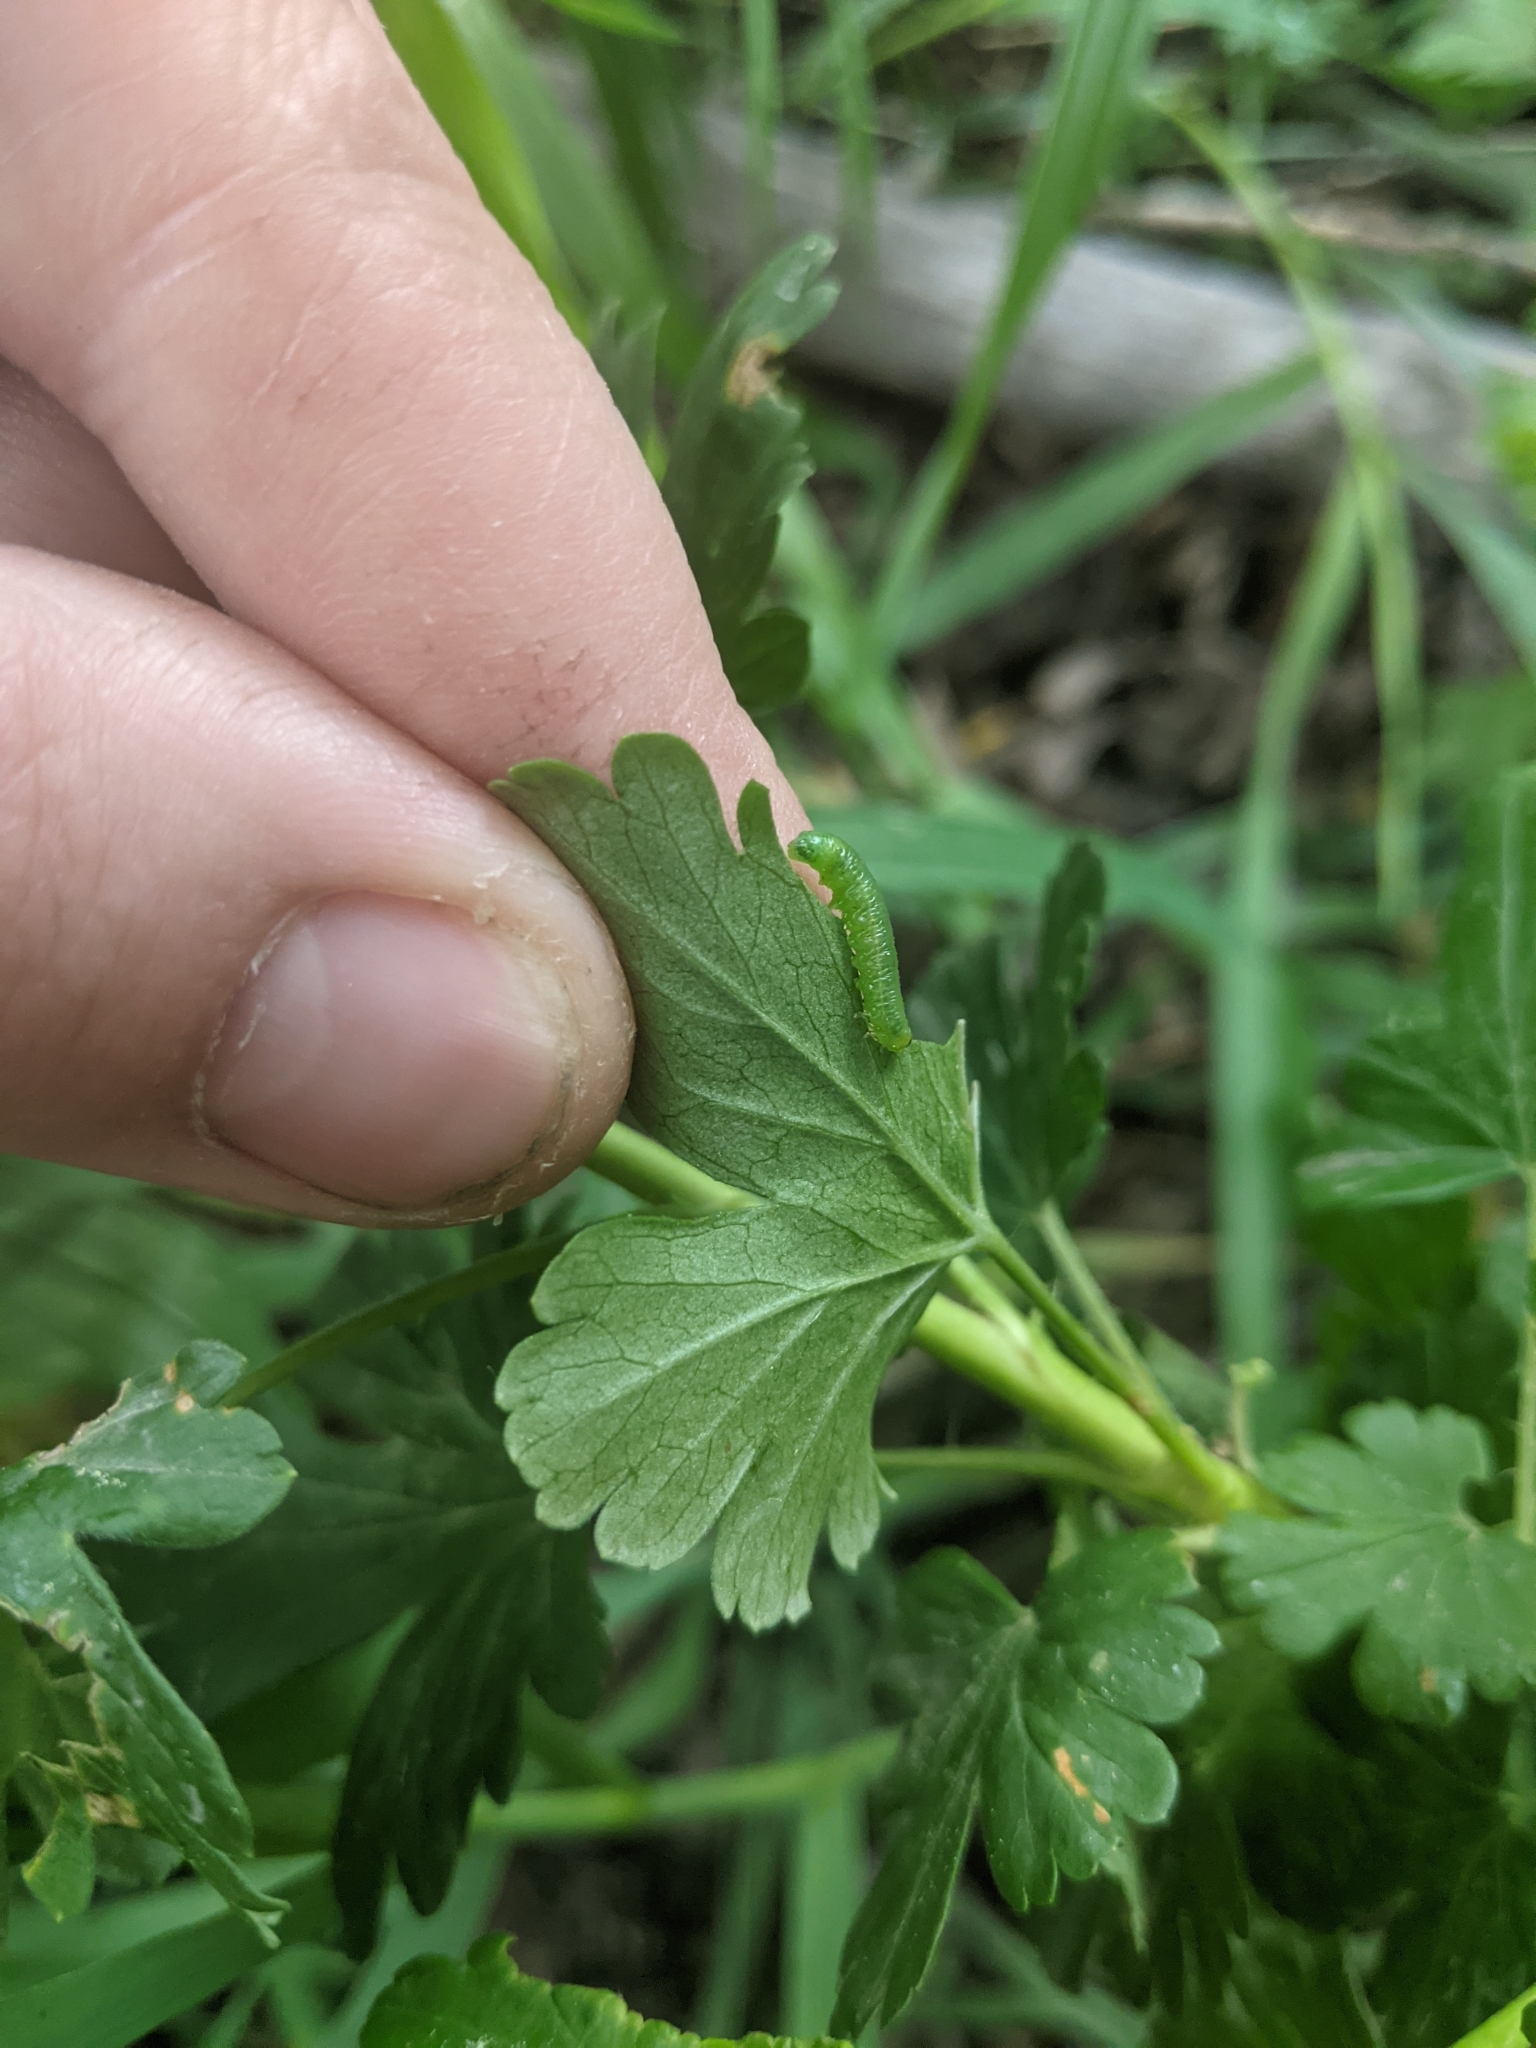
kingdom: Animalia
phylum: Arthropoda
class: Insecta
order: Hymenoptera
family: Tenthredinidae
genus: Pristiphora
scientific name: Pristiphora appendiculata
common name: Tenthredid wasp
